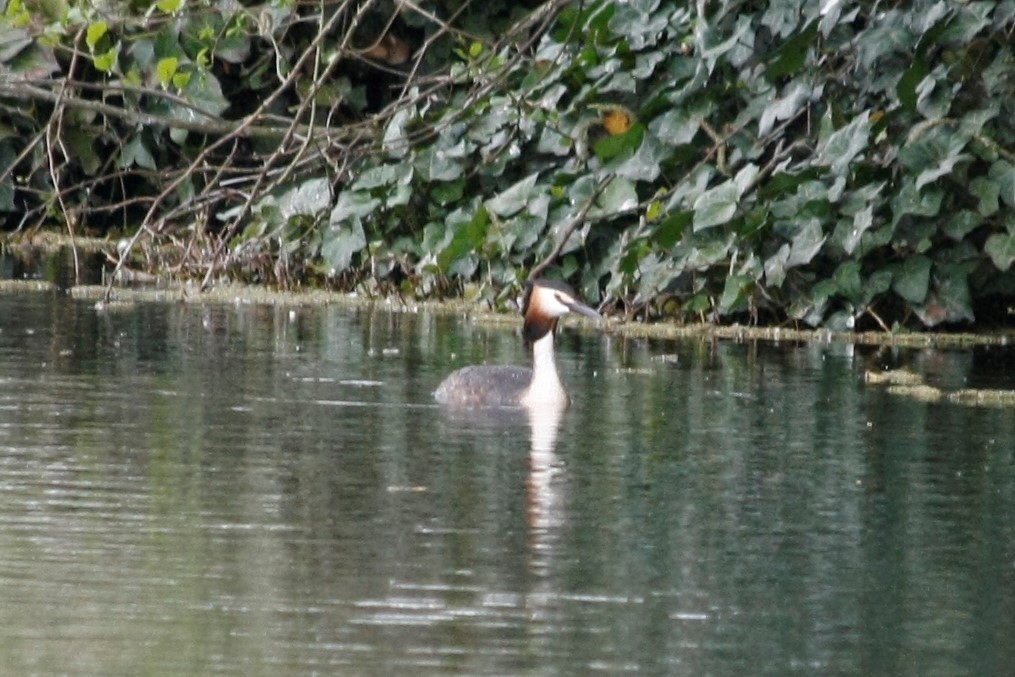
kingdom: Animalia
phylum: Chordata
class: Aves
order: Podicipediformes
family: Podicipedidae
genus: Podiceps
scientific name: Podiceps cristatus
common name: Great crested grebe
